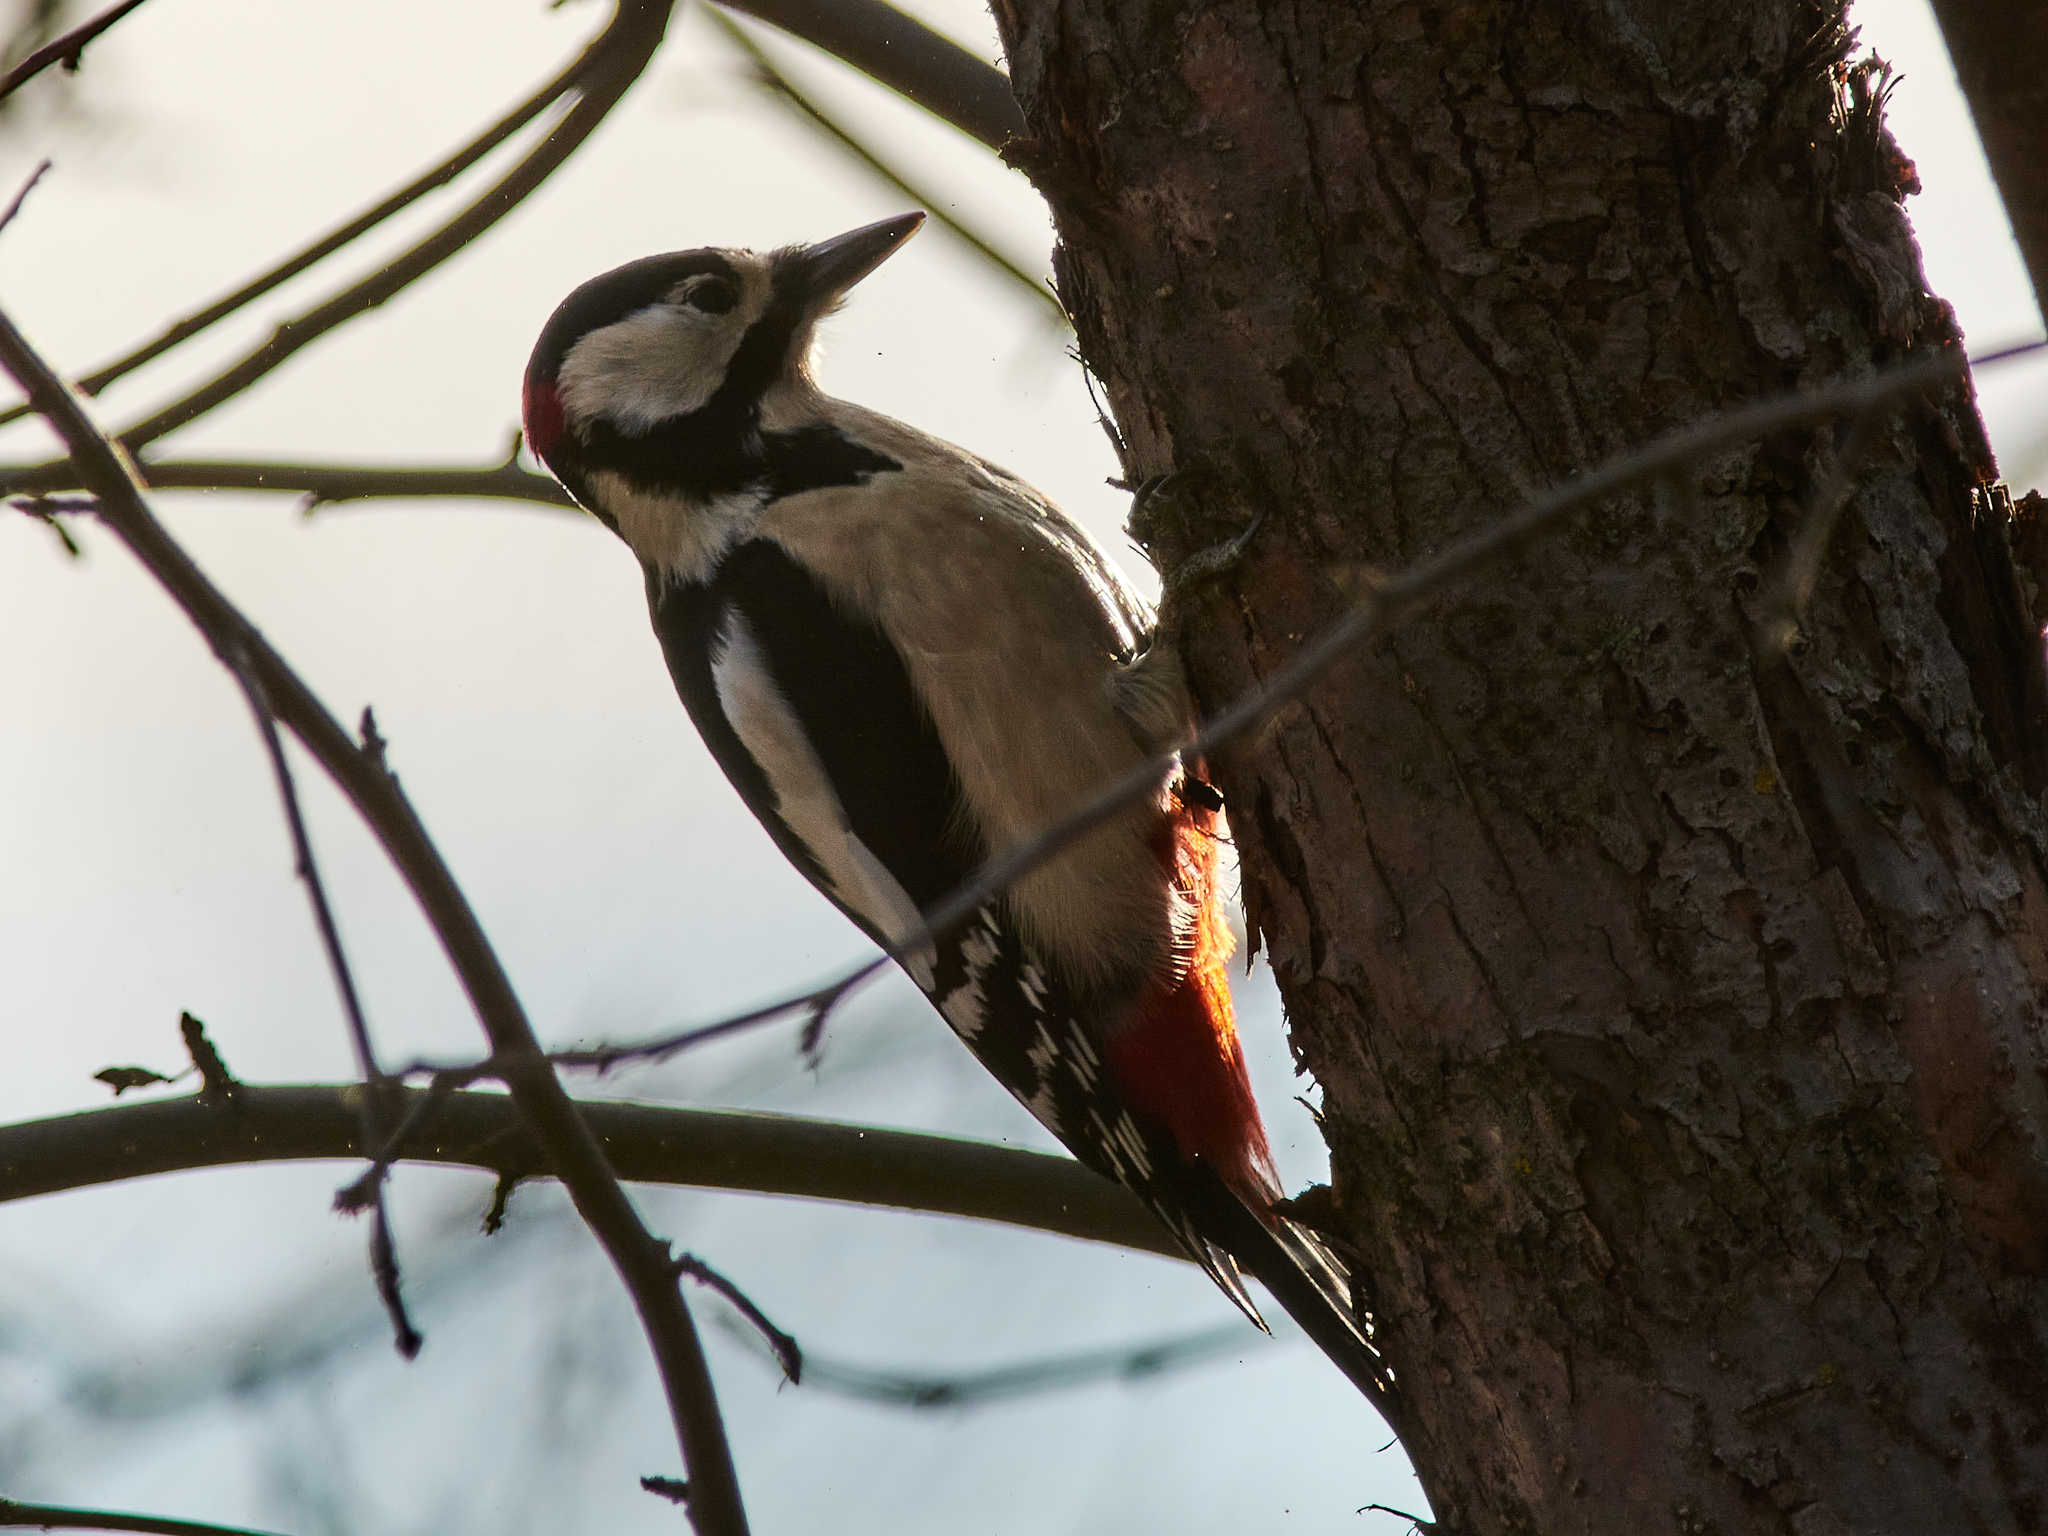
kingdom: Animalia
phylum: Chordata
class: Aves
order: Piciformes
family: Picidae
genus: Dendrocopos
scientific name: Dendrocopos major
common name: Great spotted woodpecker
